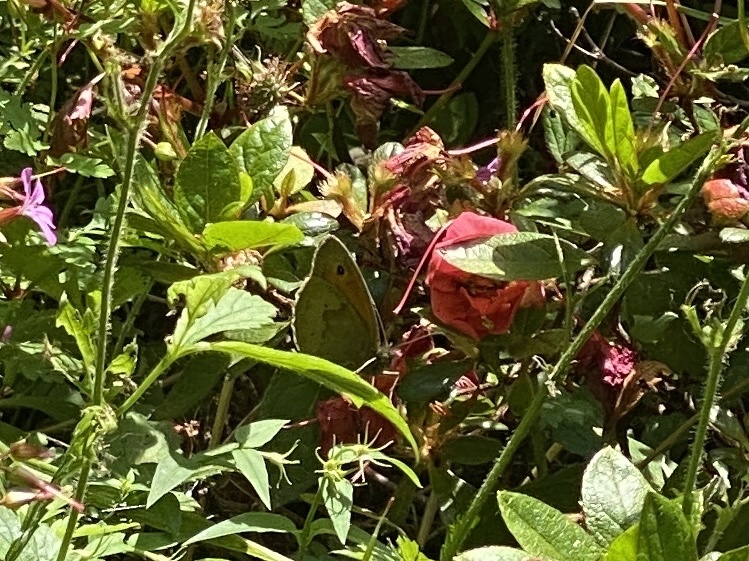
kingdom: Animalia
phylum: Arthropoda
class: Insecta
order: Lepidoptera
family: Nymphalidae
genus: Maniola
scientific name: Maniola jurtina
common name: Meadow brown
